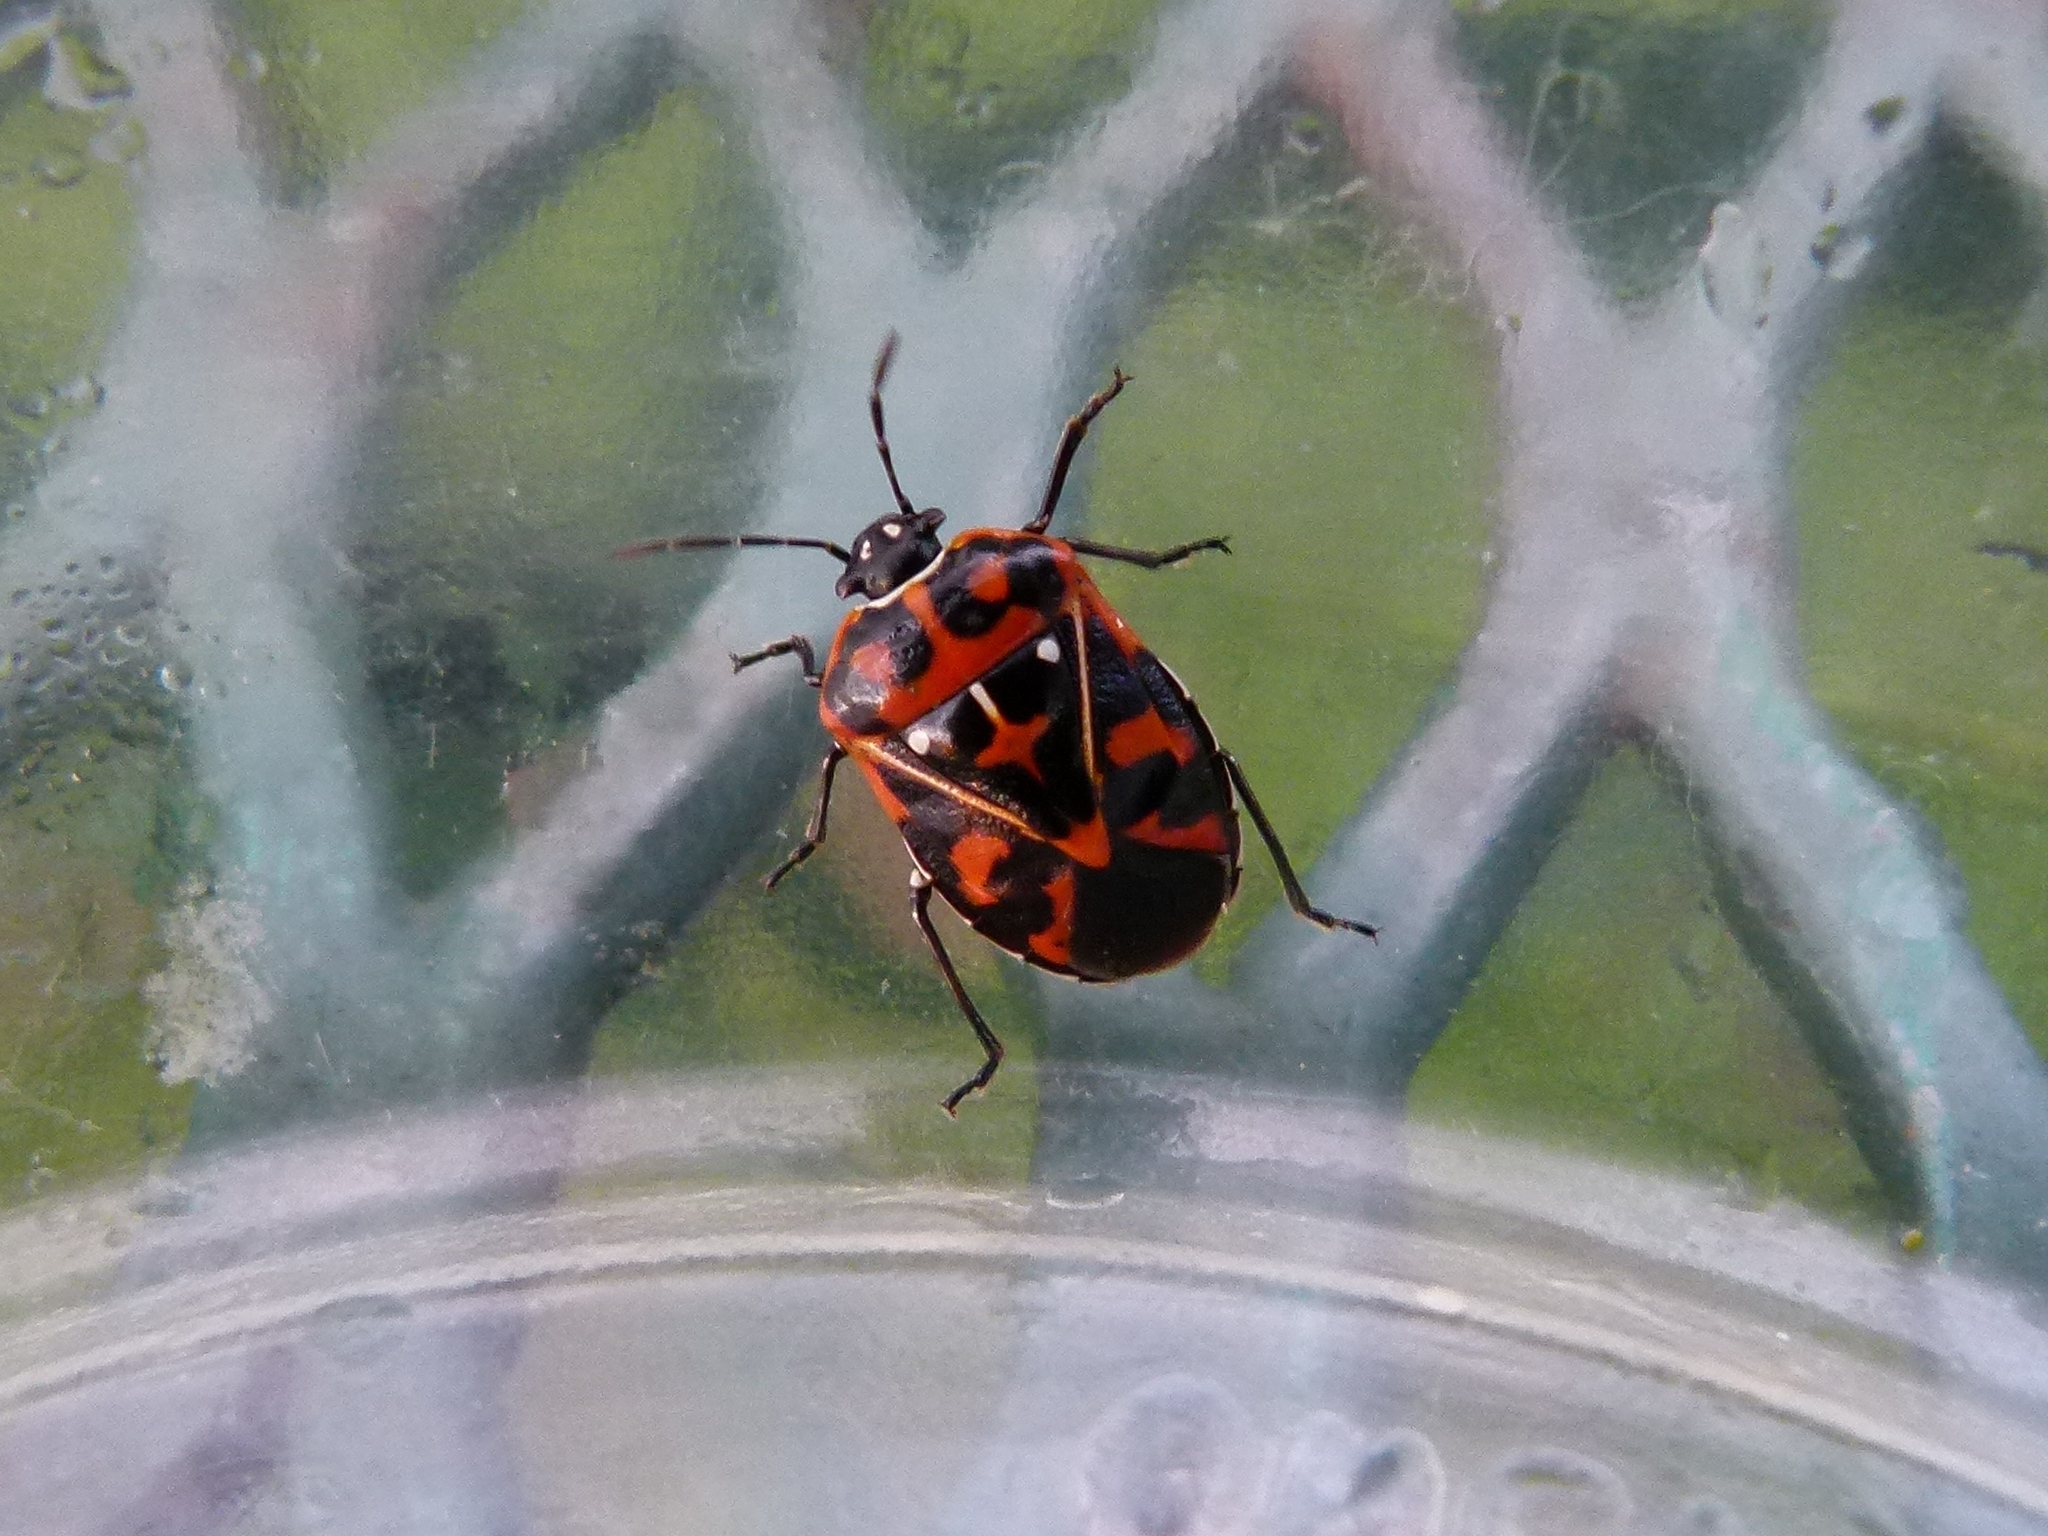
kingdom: Animalia
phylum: Arthropoda
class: Insecta
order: Hemiptera
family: Pentatomidae
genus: Murgantia
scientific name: Murgantia histrionica
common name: Harlequin bug
